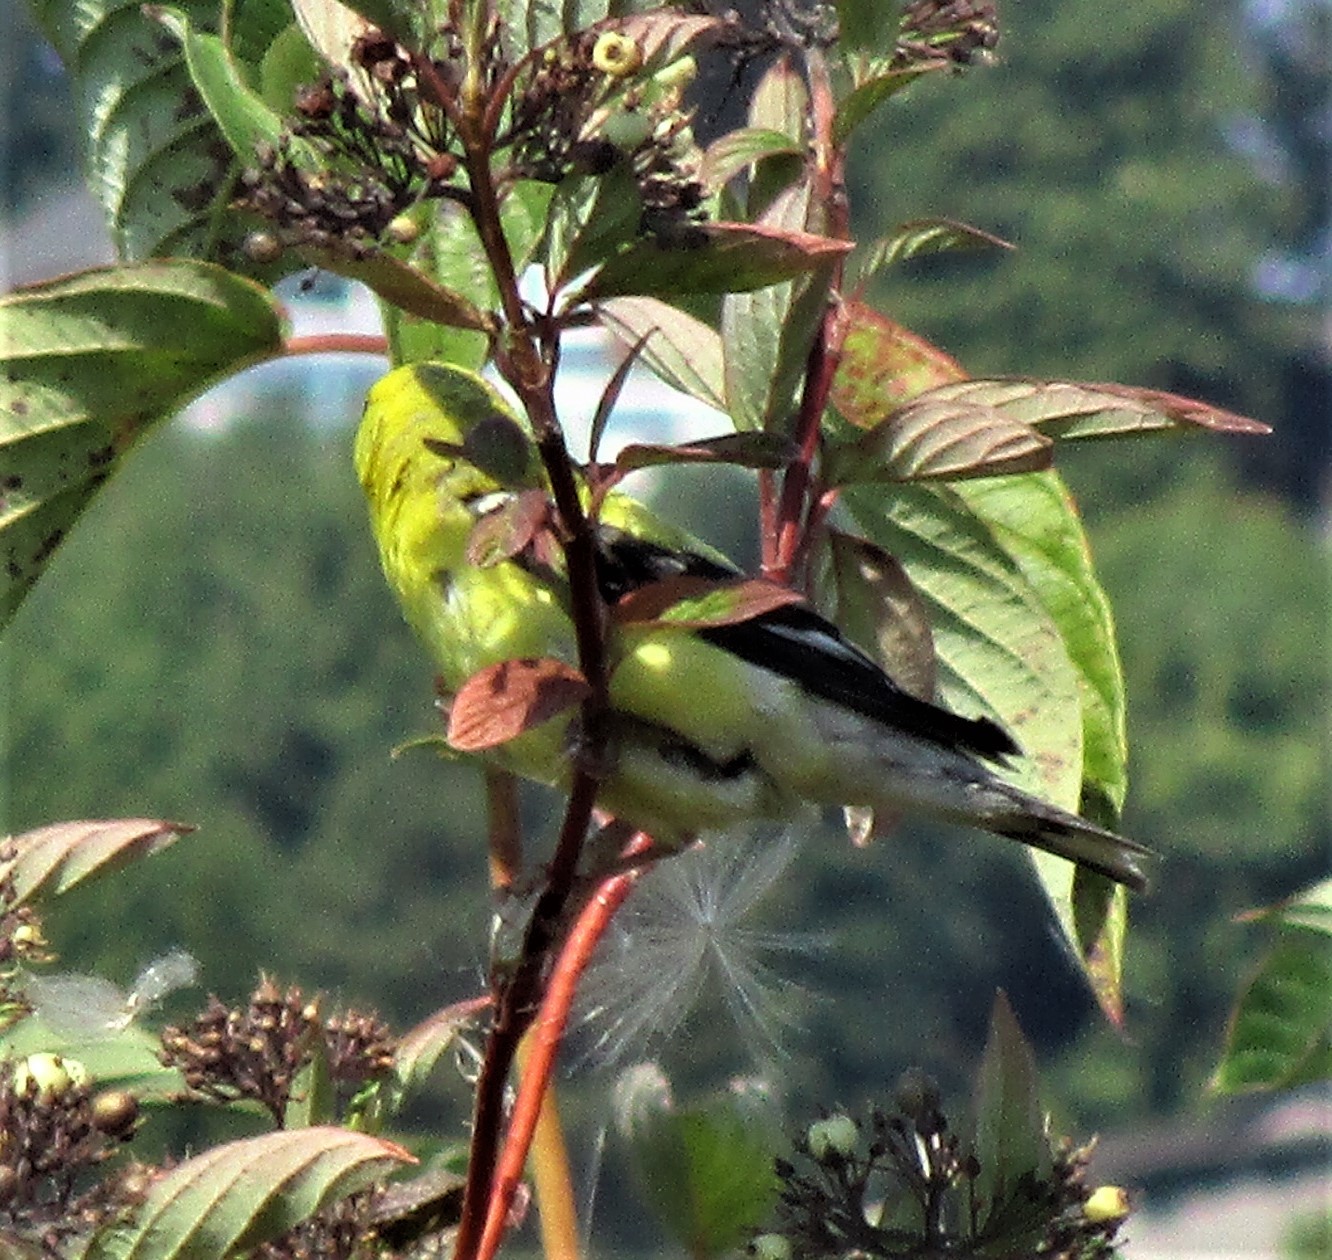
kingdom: Animalia
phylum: Chordata
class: Aves
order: Passeriformes
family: Fringillidae
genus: Spinus
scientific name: Spinus tristis
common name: American goldfinch
